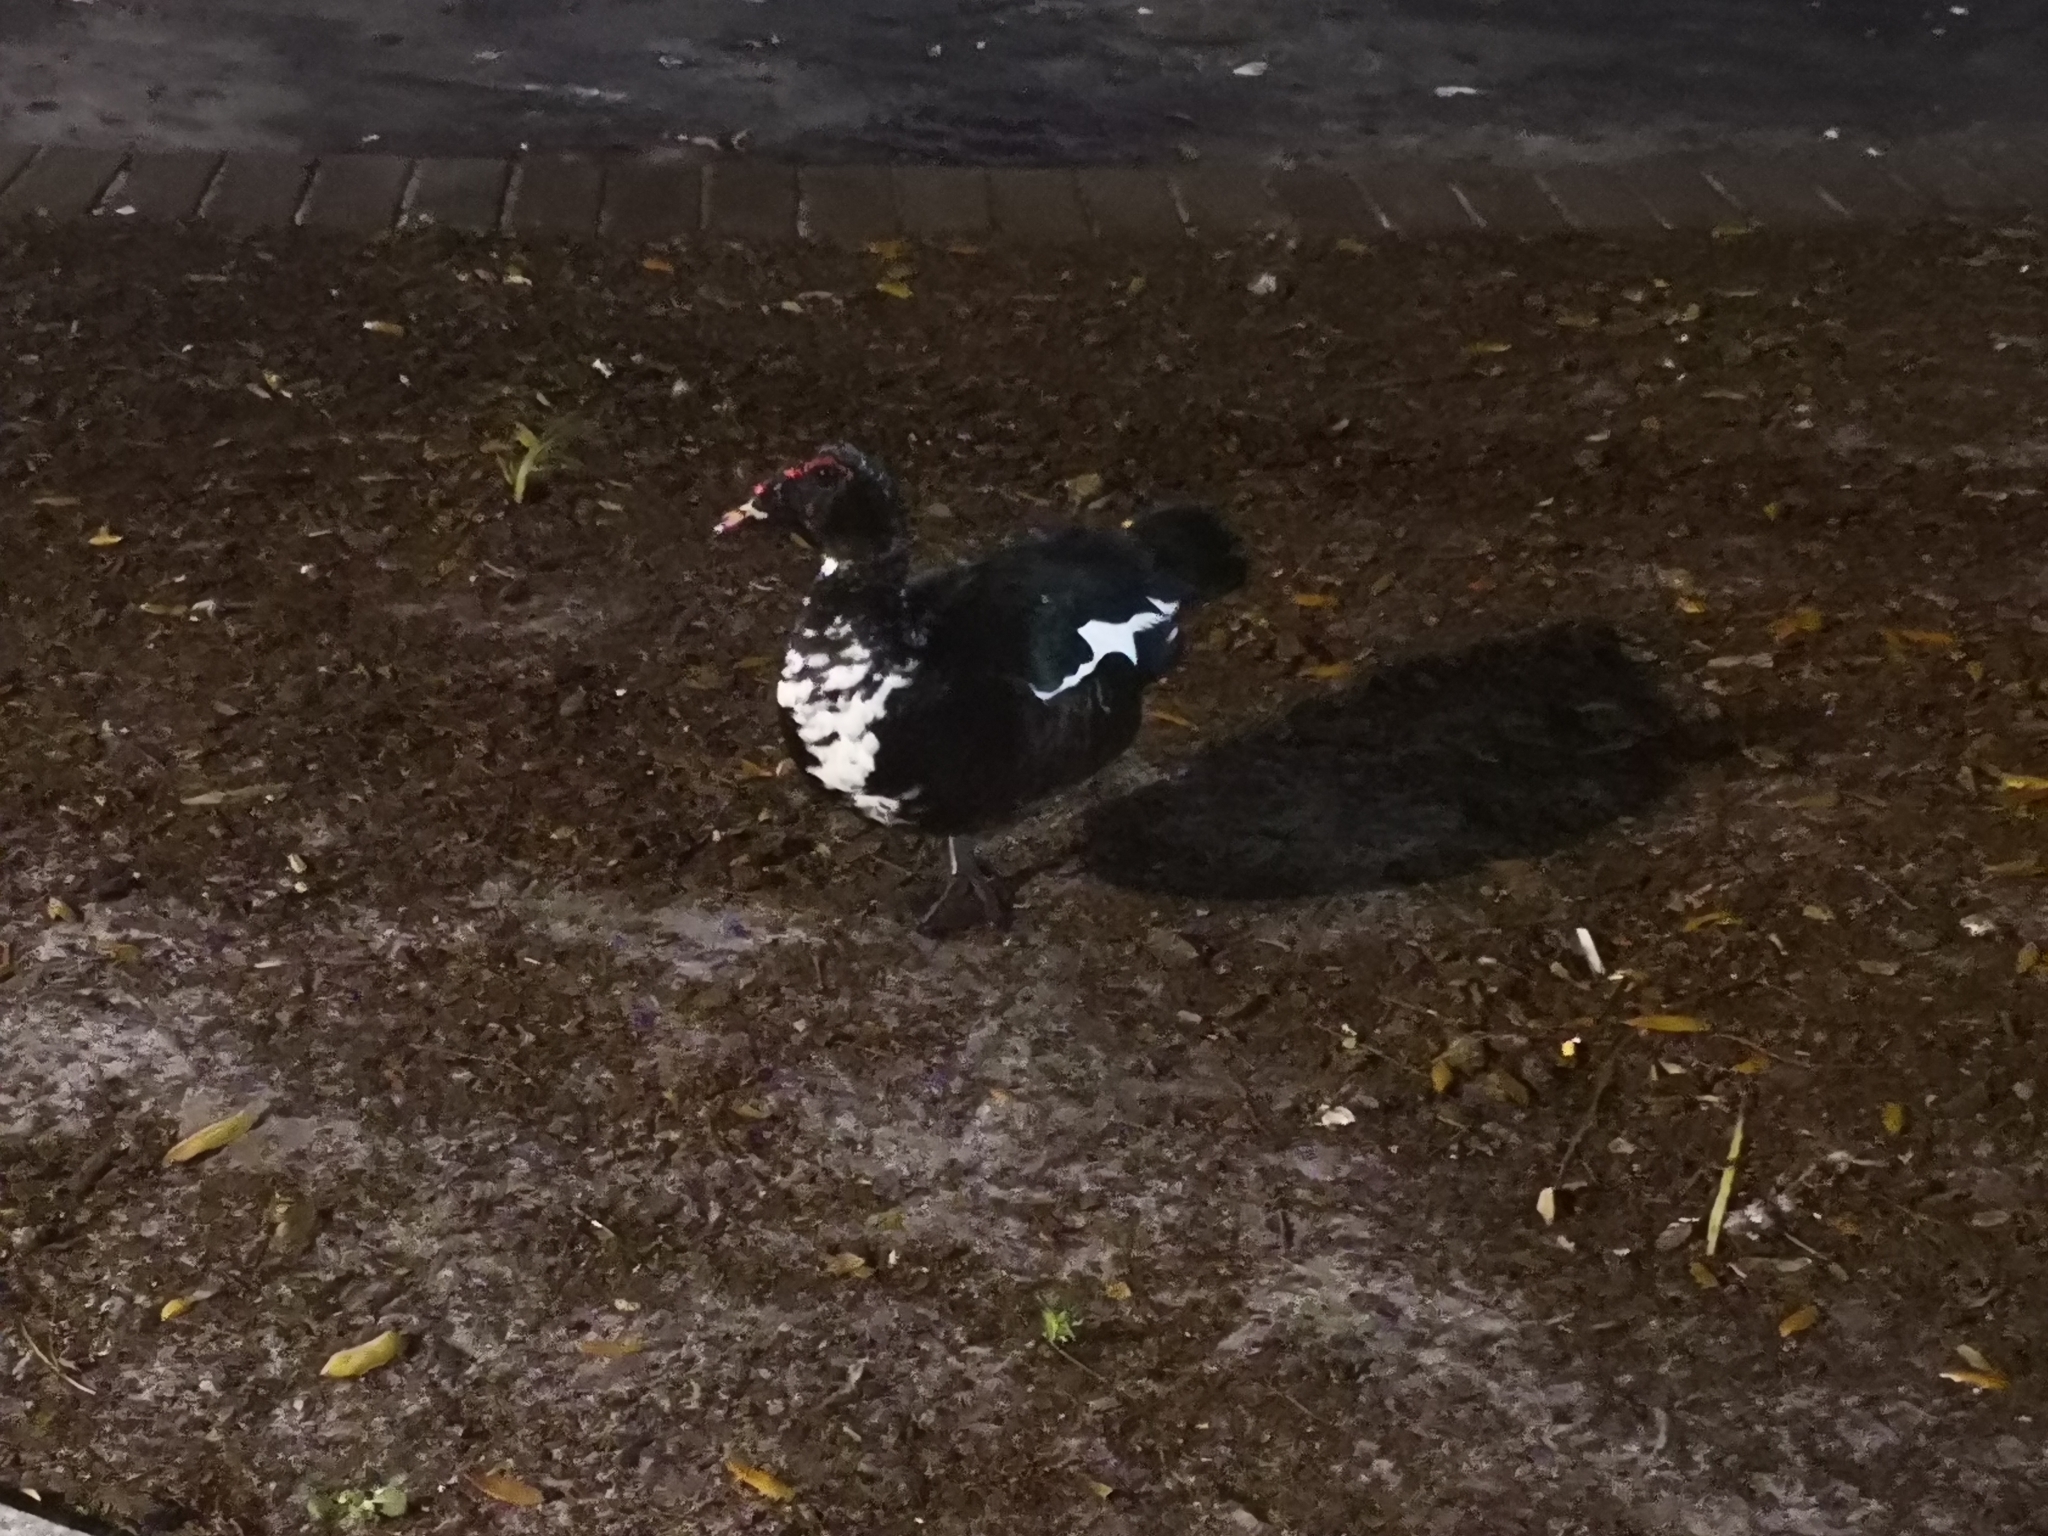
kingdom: Animalia
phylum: Chordata
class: Aves
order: Anseriformes
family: Anatidae
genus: Cairina
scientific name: Cairina moschata
